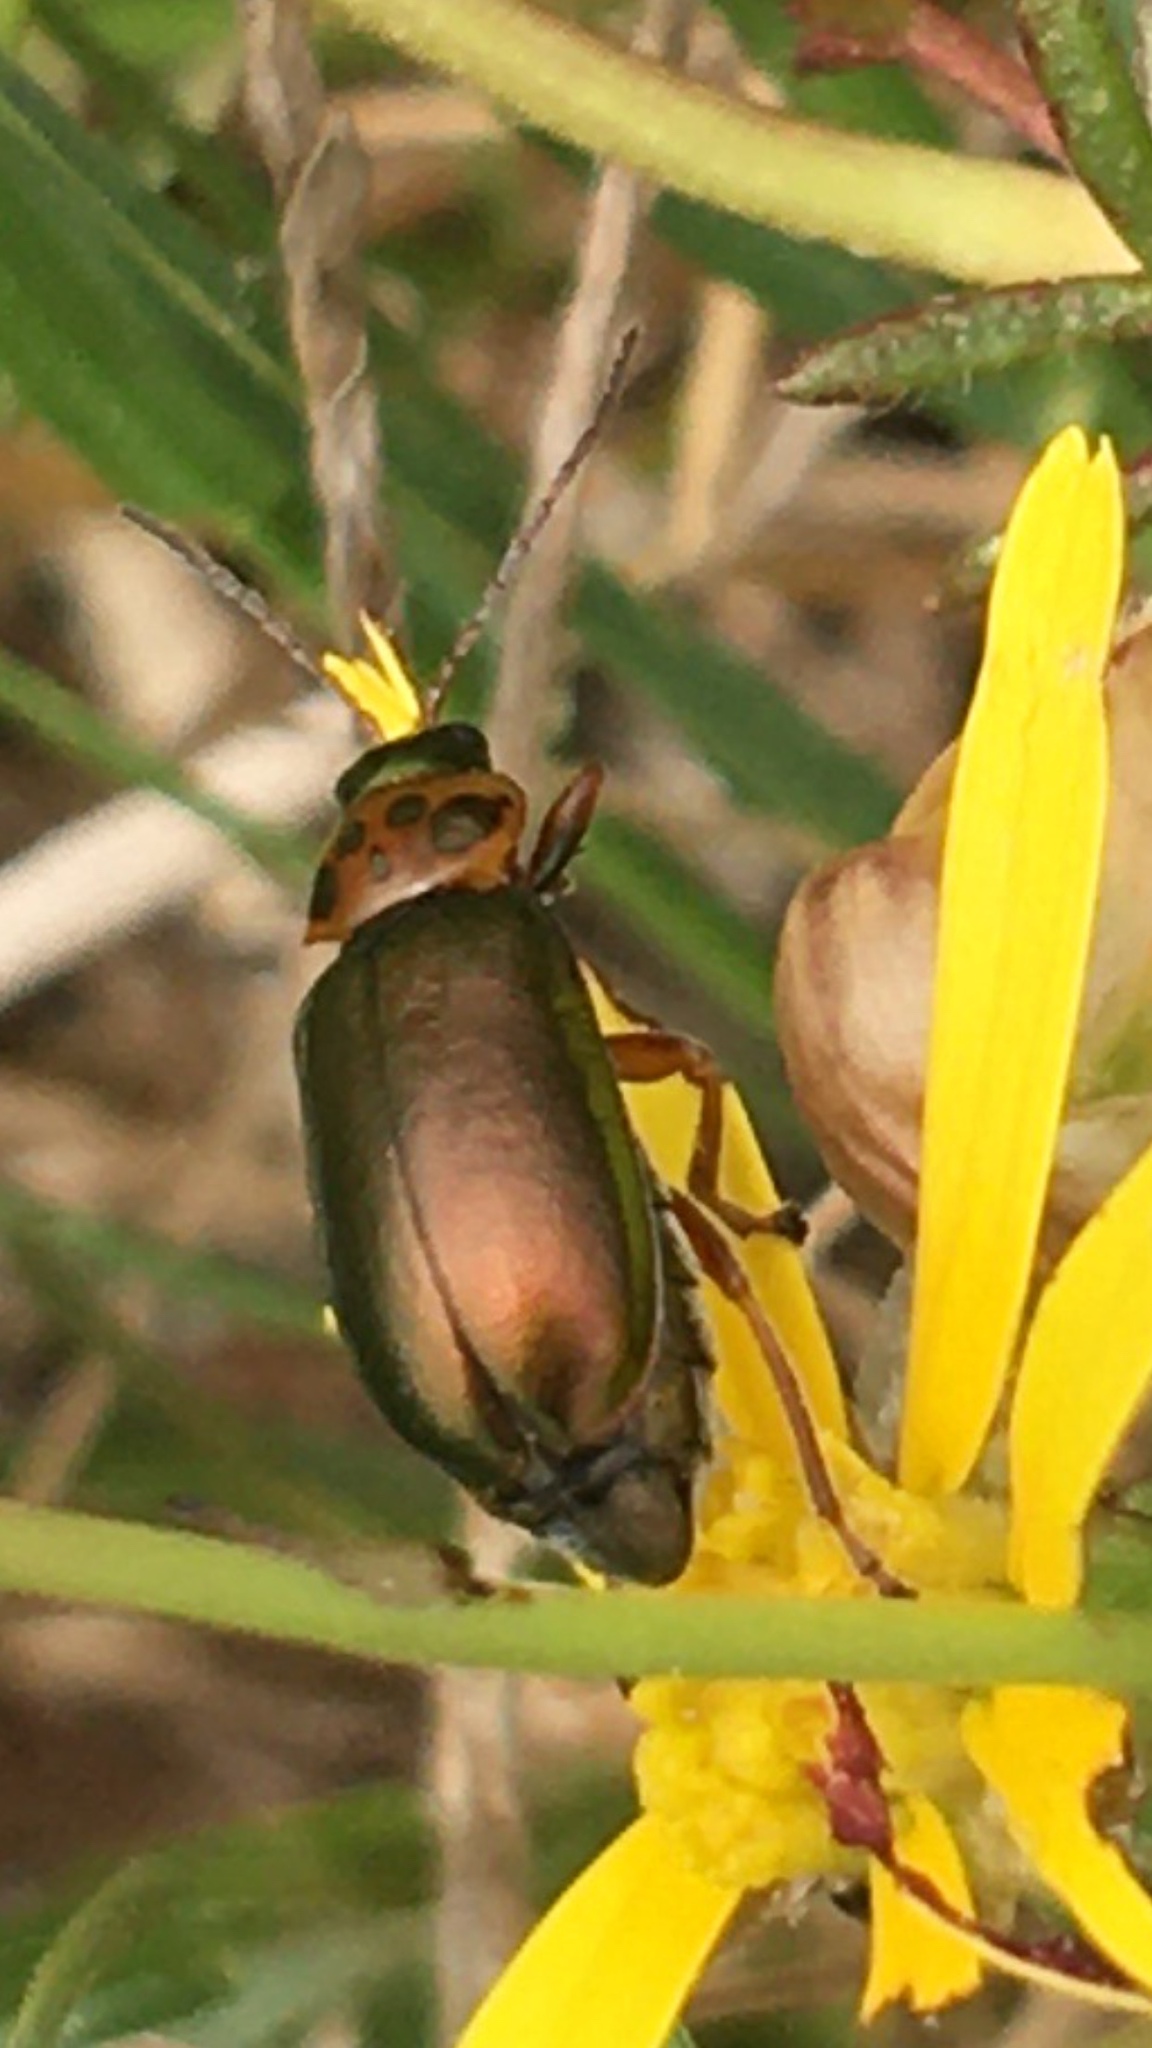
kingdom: Animalia
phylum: Arthropoda
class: Insecta
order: Coleoptera
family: Chrysomelidae
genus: Palaeophylia
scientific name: Palaeophylia
